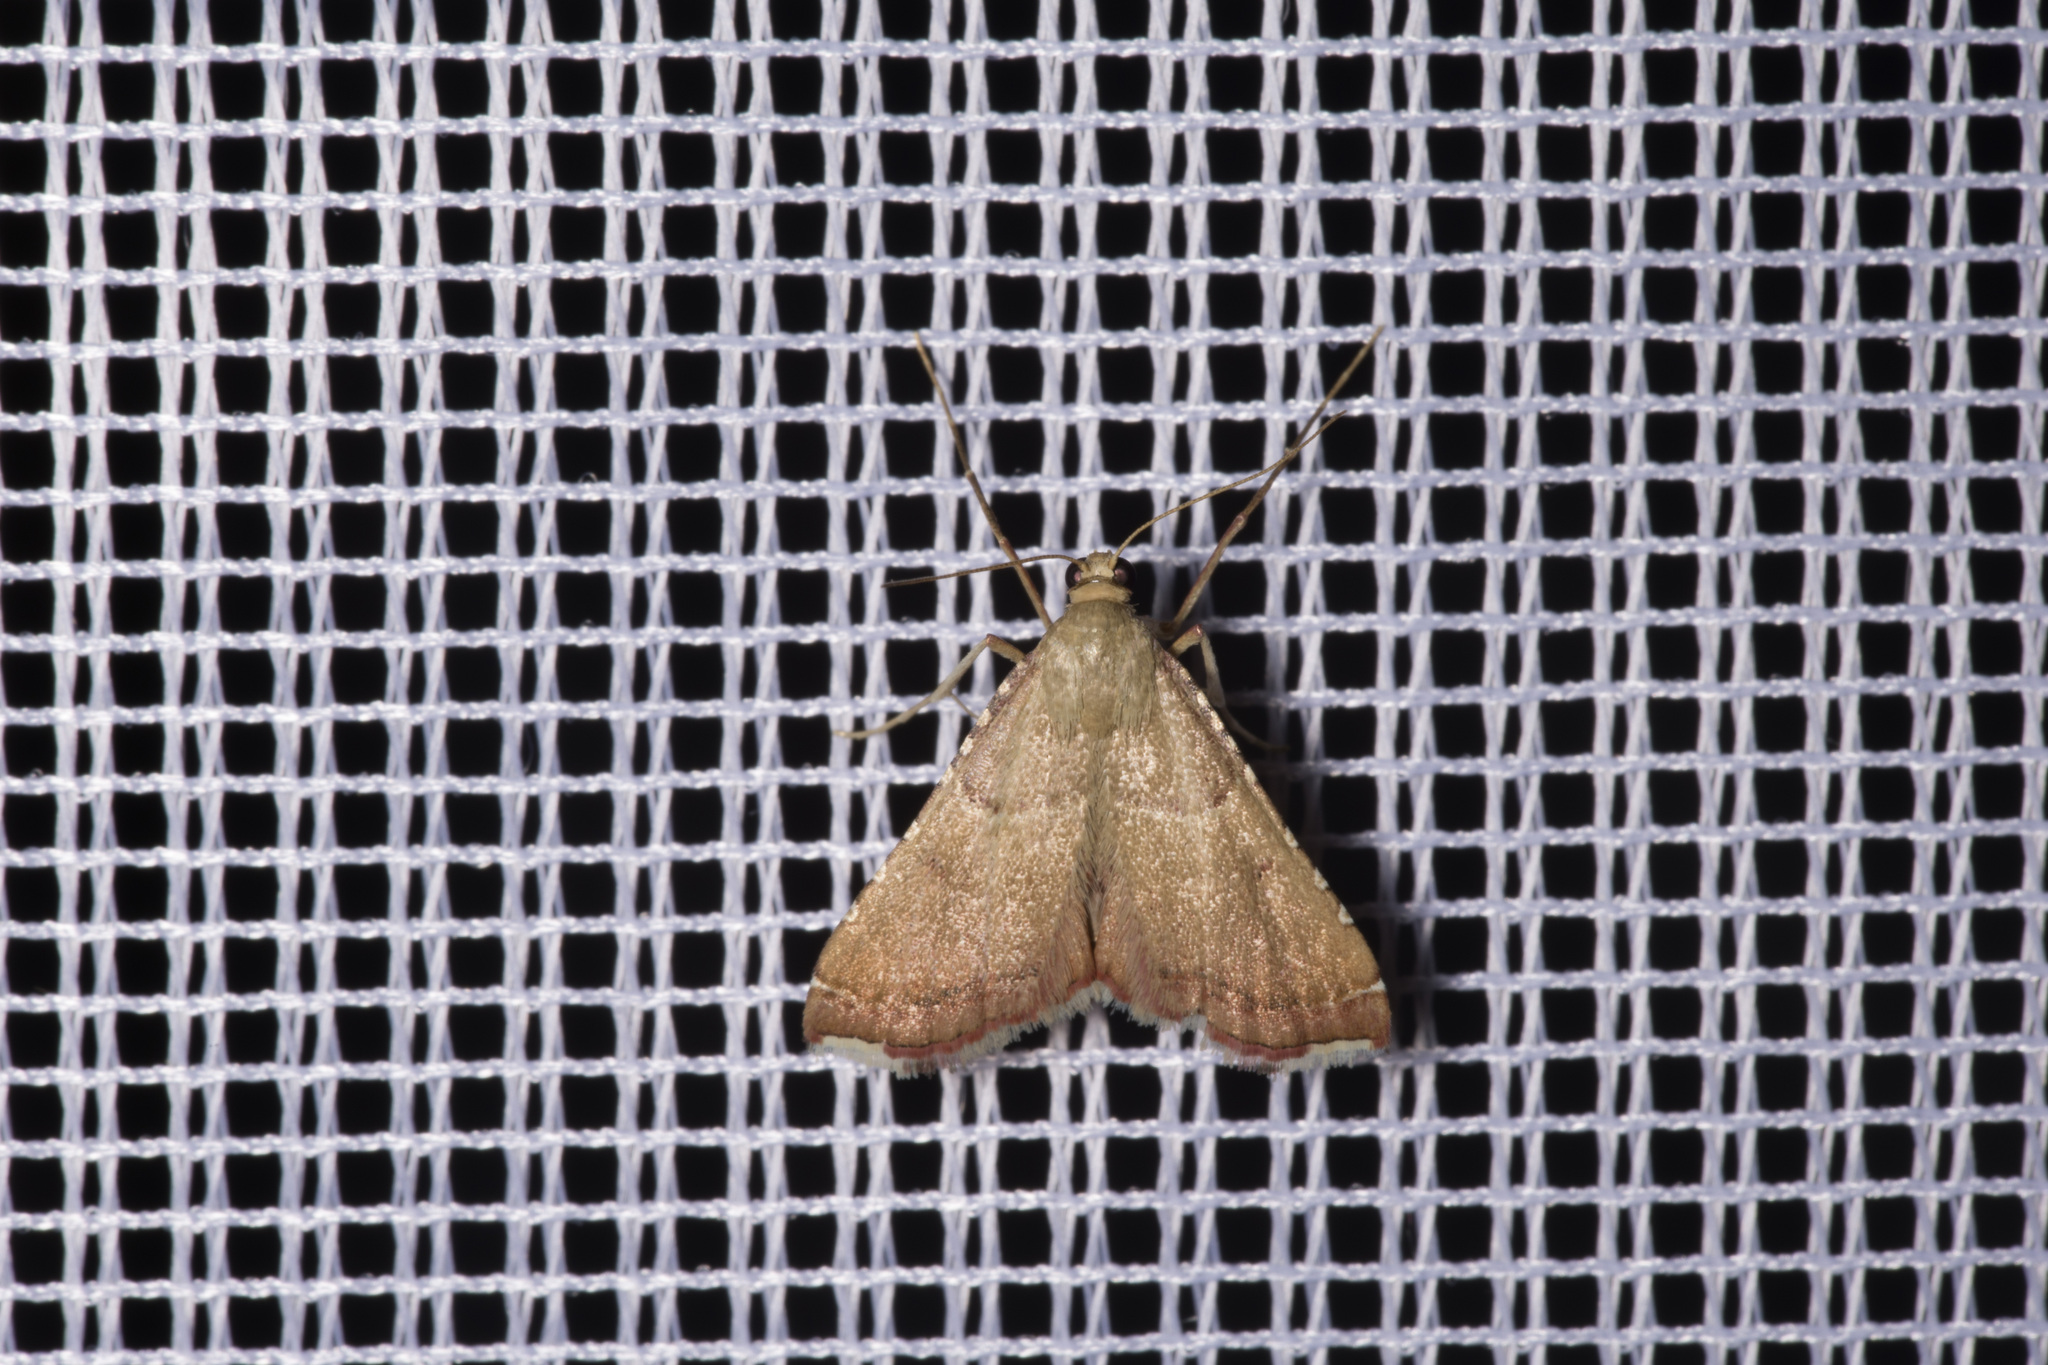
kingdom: Animalia
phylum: Arthropoda
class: Insecta
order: Lepidoptera
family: Pyralidae
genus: Endotricha
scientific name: Endotricha flammealis
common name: Rosy tabby
